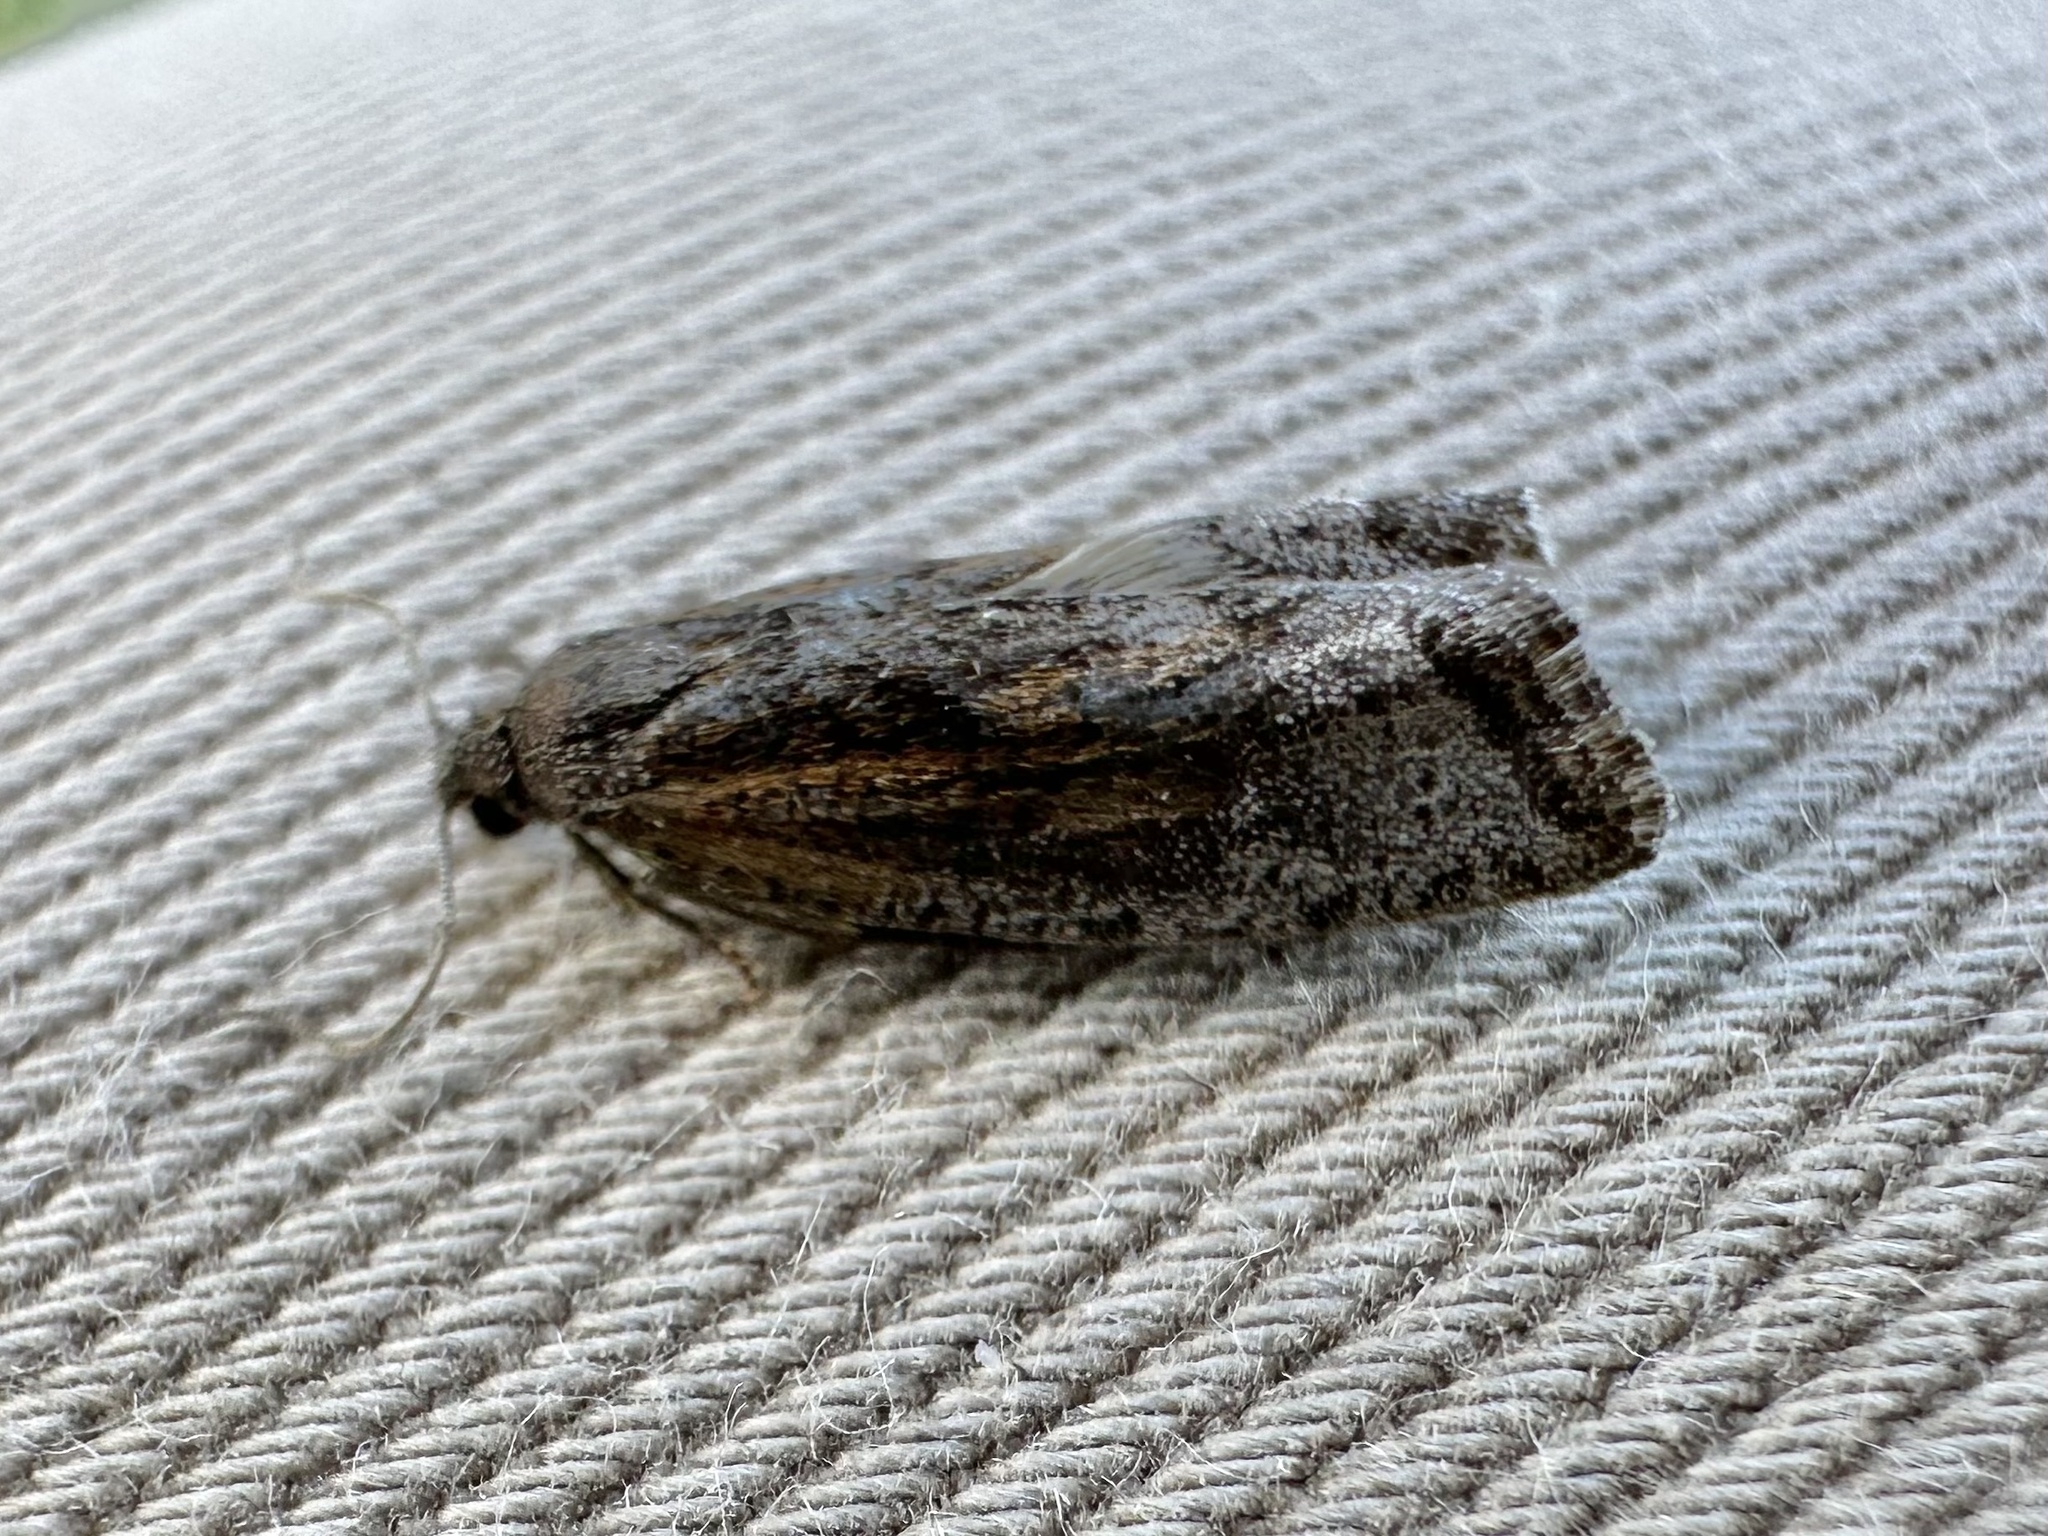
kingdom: Animalia
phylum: Arthropoda
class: Insecta
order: Lepidoptera
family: Tortricidae
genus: Eucosma
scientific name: Eucosma kokana
